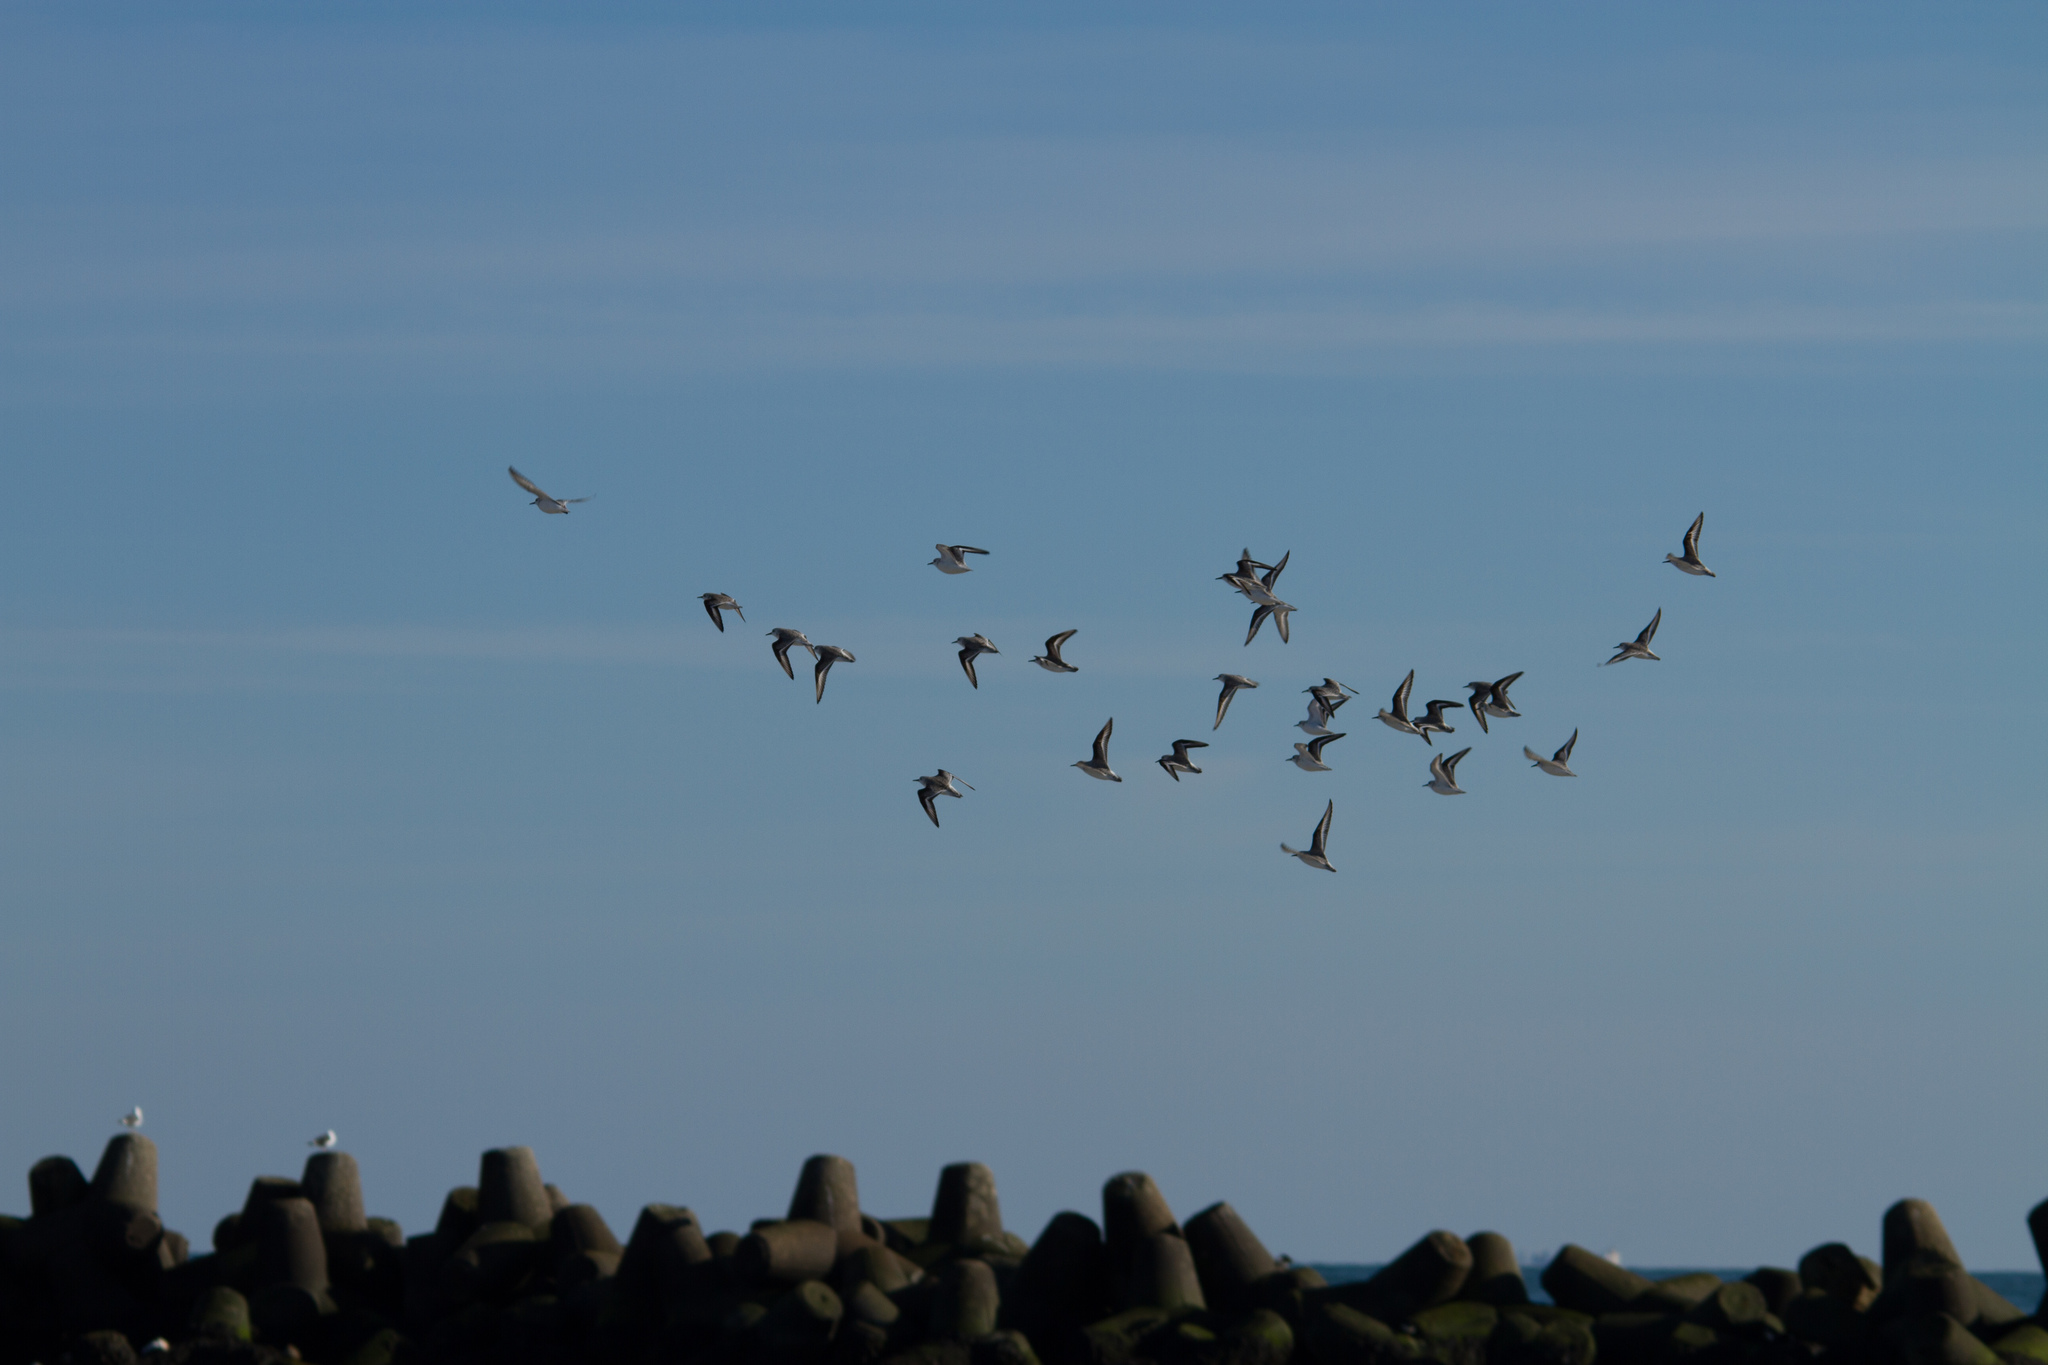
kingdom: Animalia
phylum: Chordata
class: Aves
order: Charadriiformes
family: Scolopacidae
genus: Calidris
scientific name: Calidris alba
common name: Sanderling
